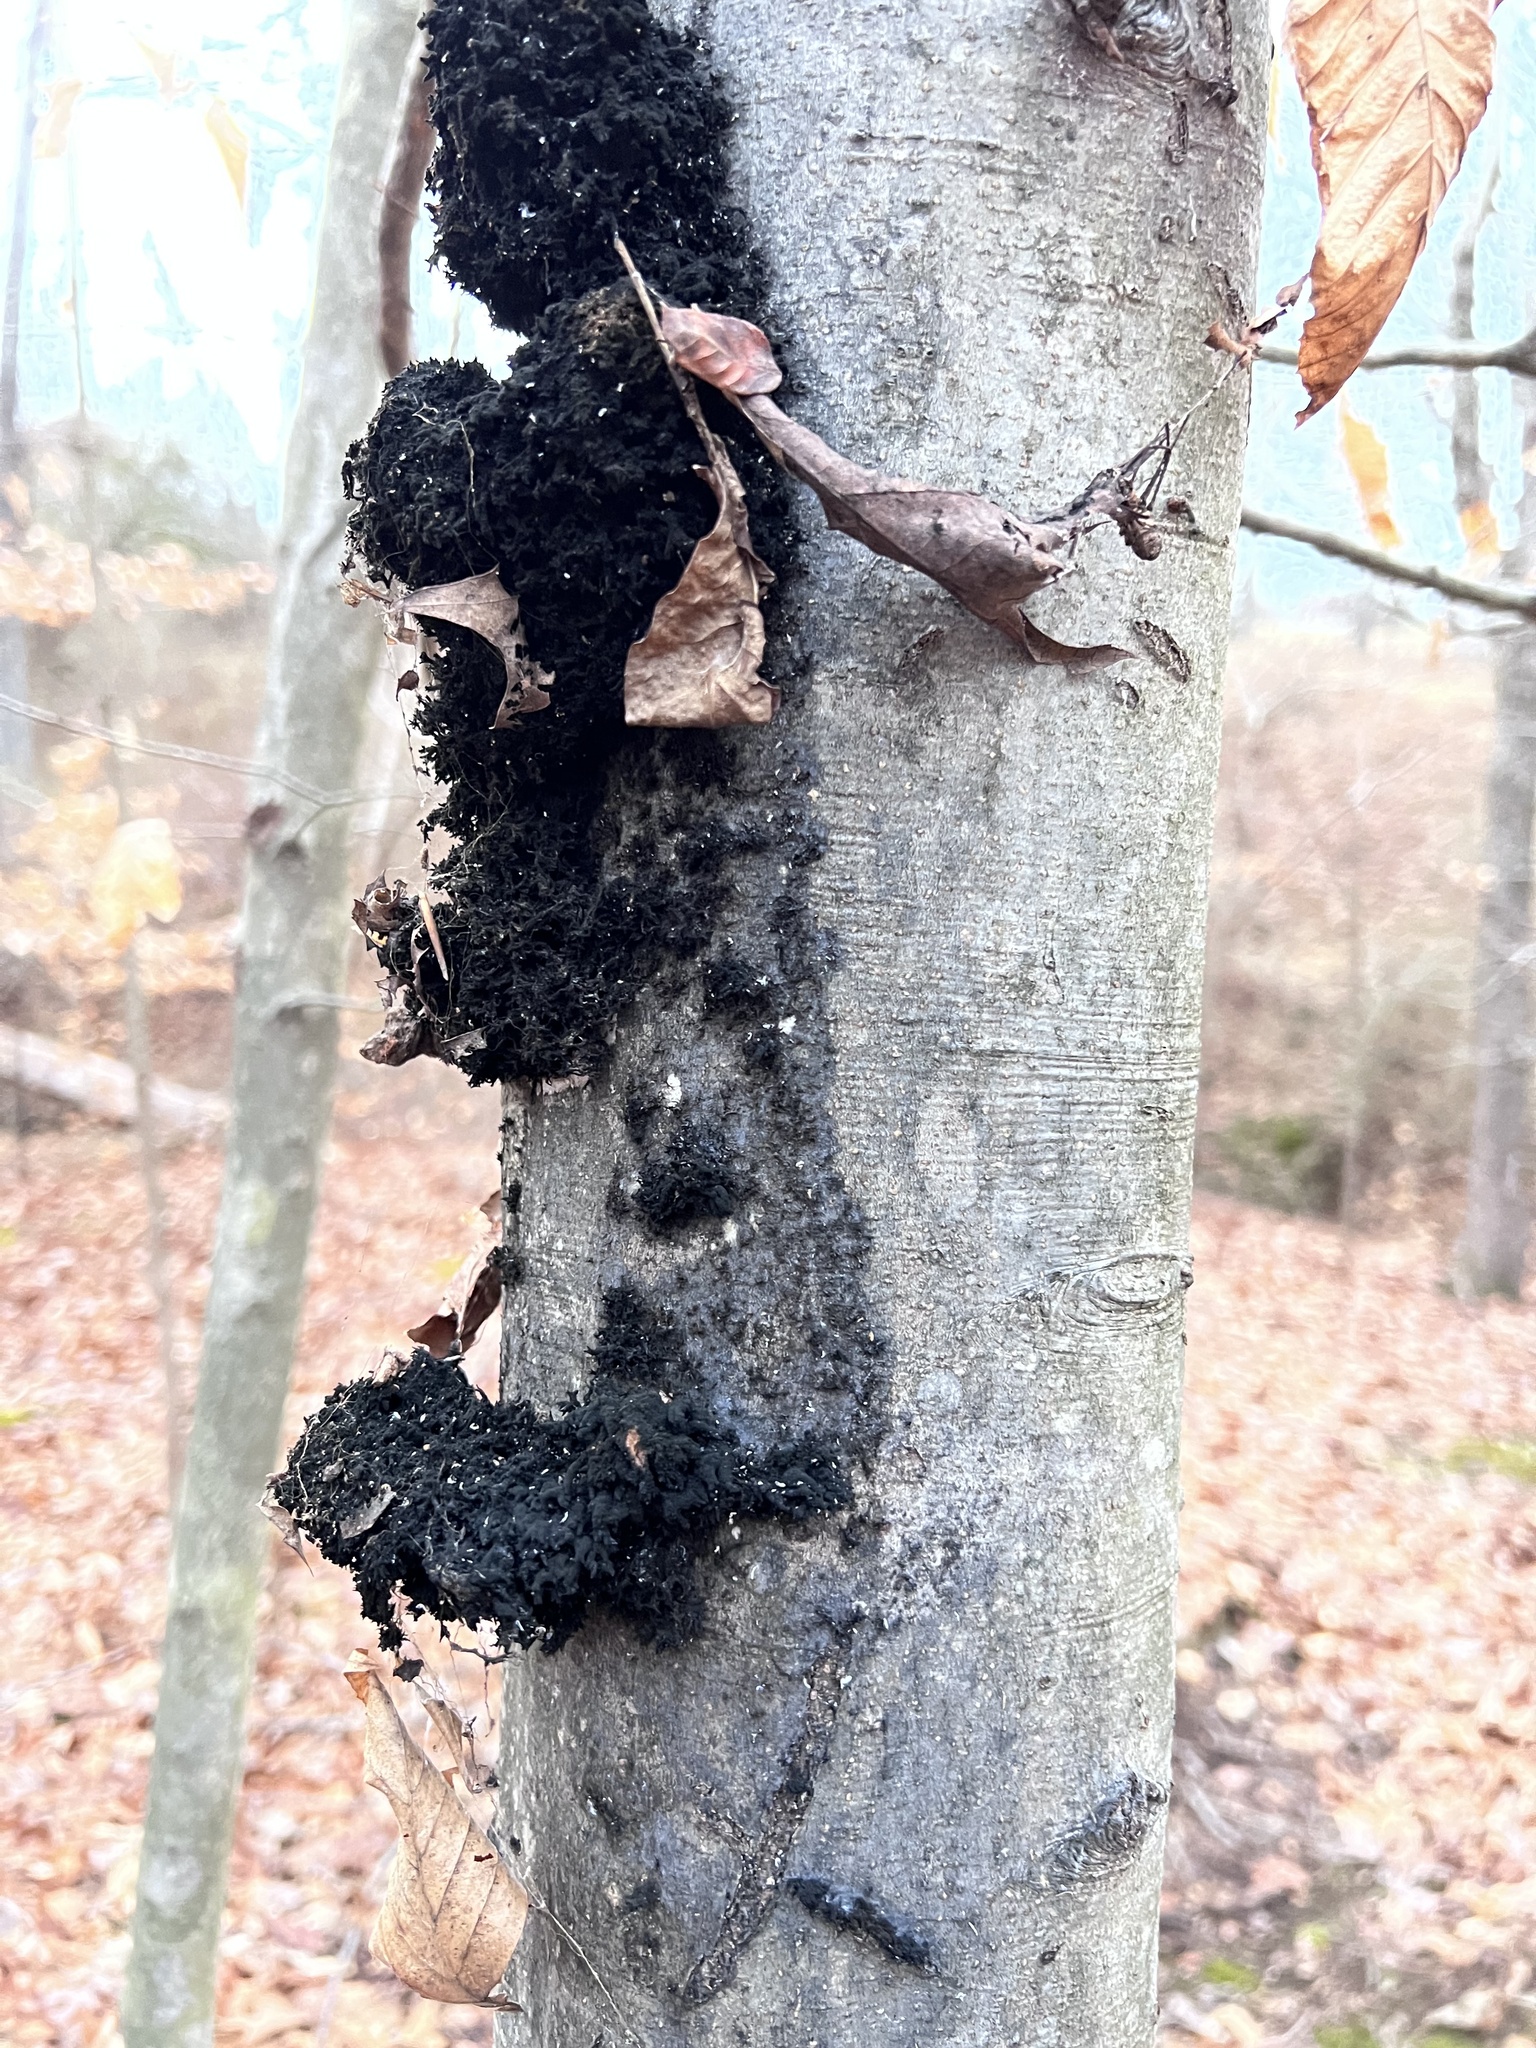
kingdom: Fungi
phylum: Ascomycota
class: Dothideomycetes
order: Capnodiales
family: Capnodiaceae
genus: Scorias
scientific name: Scorias spongiosa
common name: Black sooty mold
